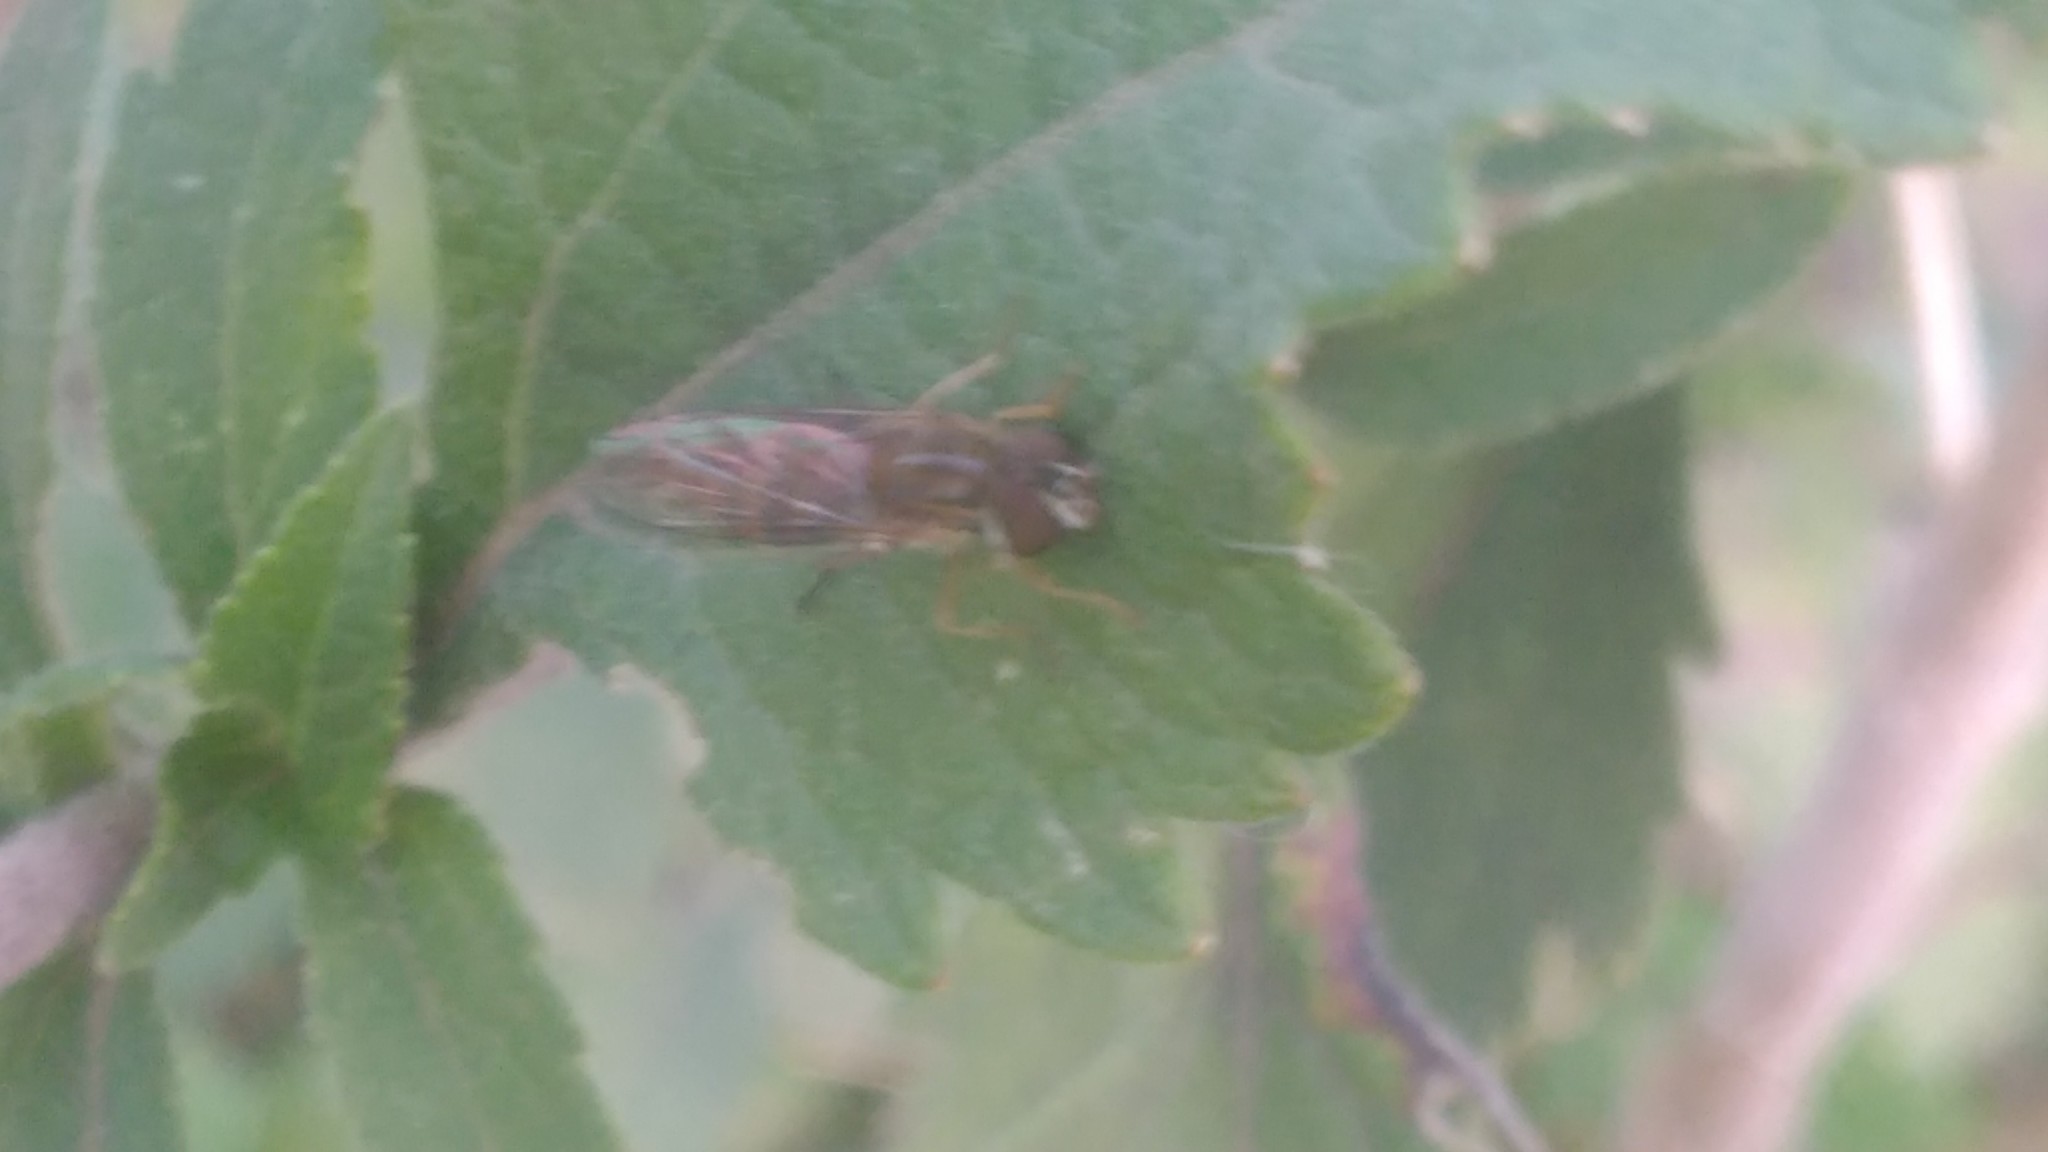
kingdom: Animalia
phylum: Arthropoda
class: Insecta
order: Diptera
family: Syrphidae
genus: Toxomerus
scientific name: Toxomerus
